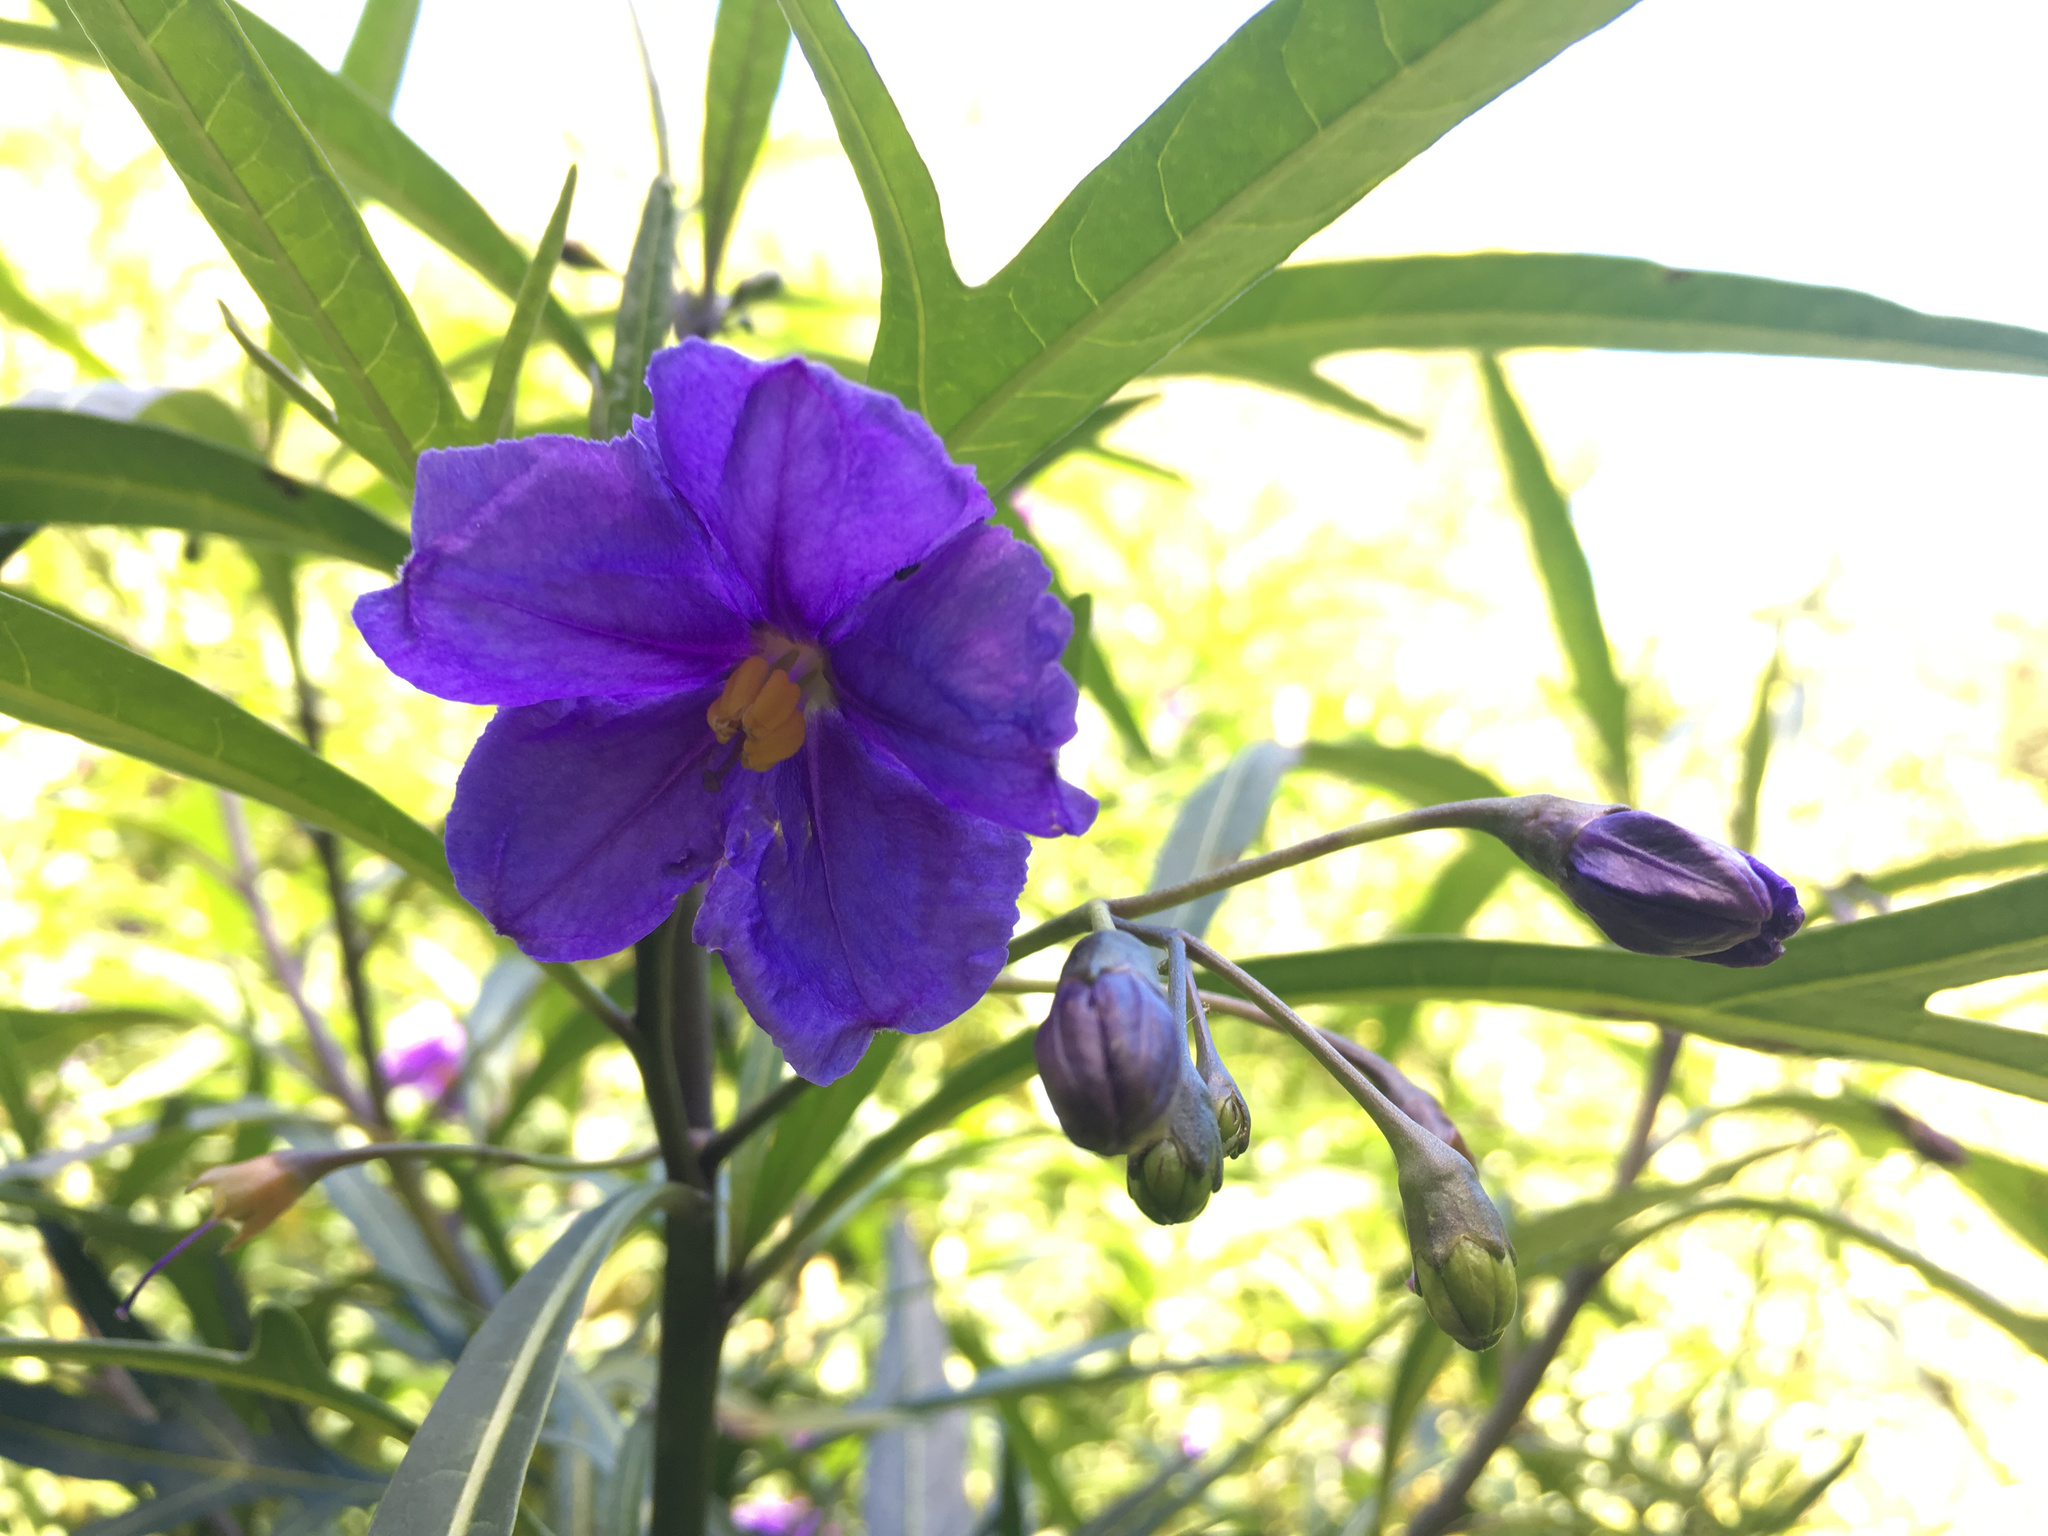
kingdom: Plantae
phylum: Tracheophyta
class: Magnoliopsida
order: Solanales
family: Solanaceae
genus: Solanum
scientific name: Solanum laciniatum
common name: Kangaroo-apple
